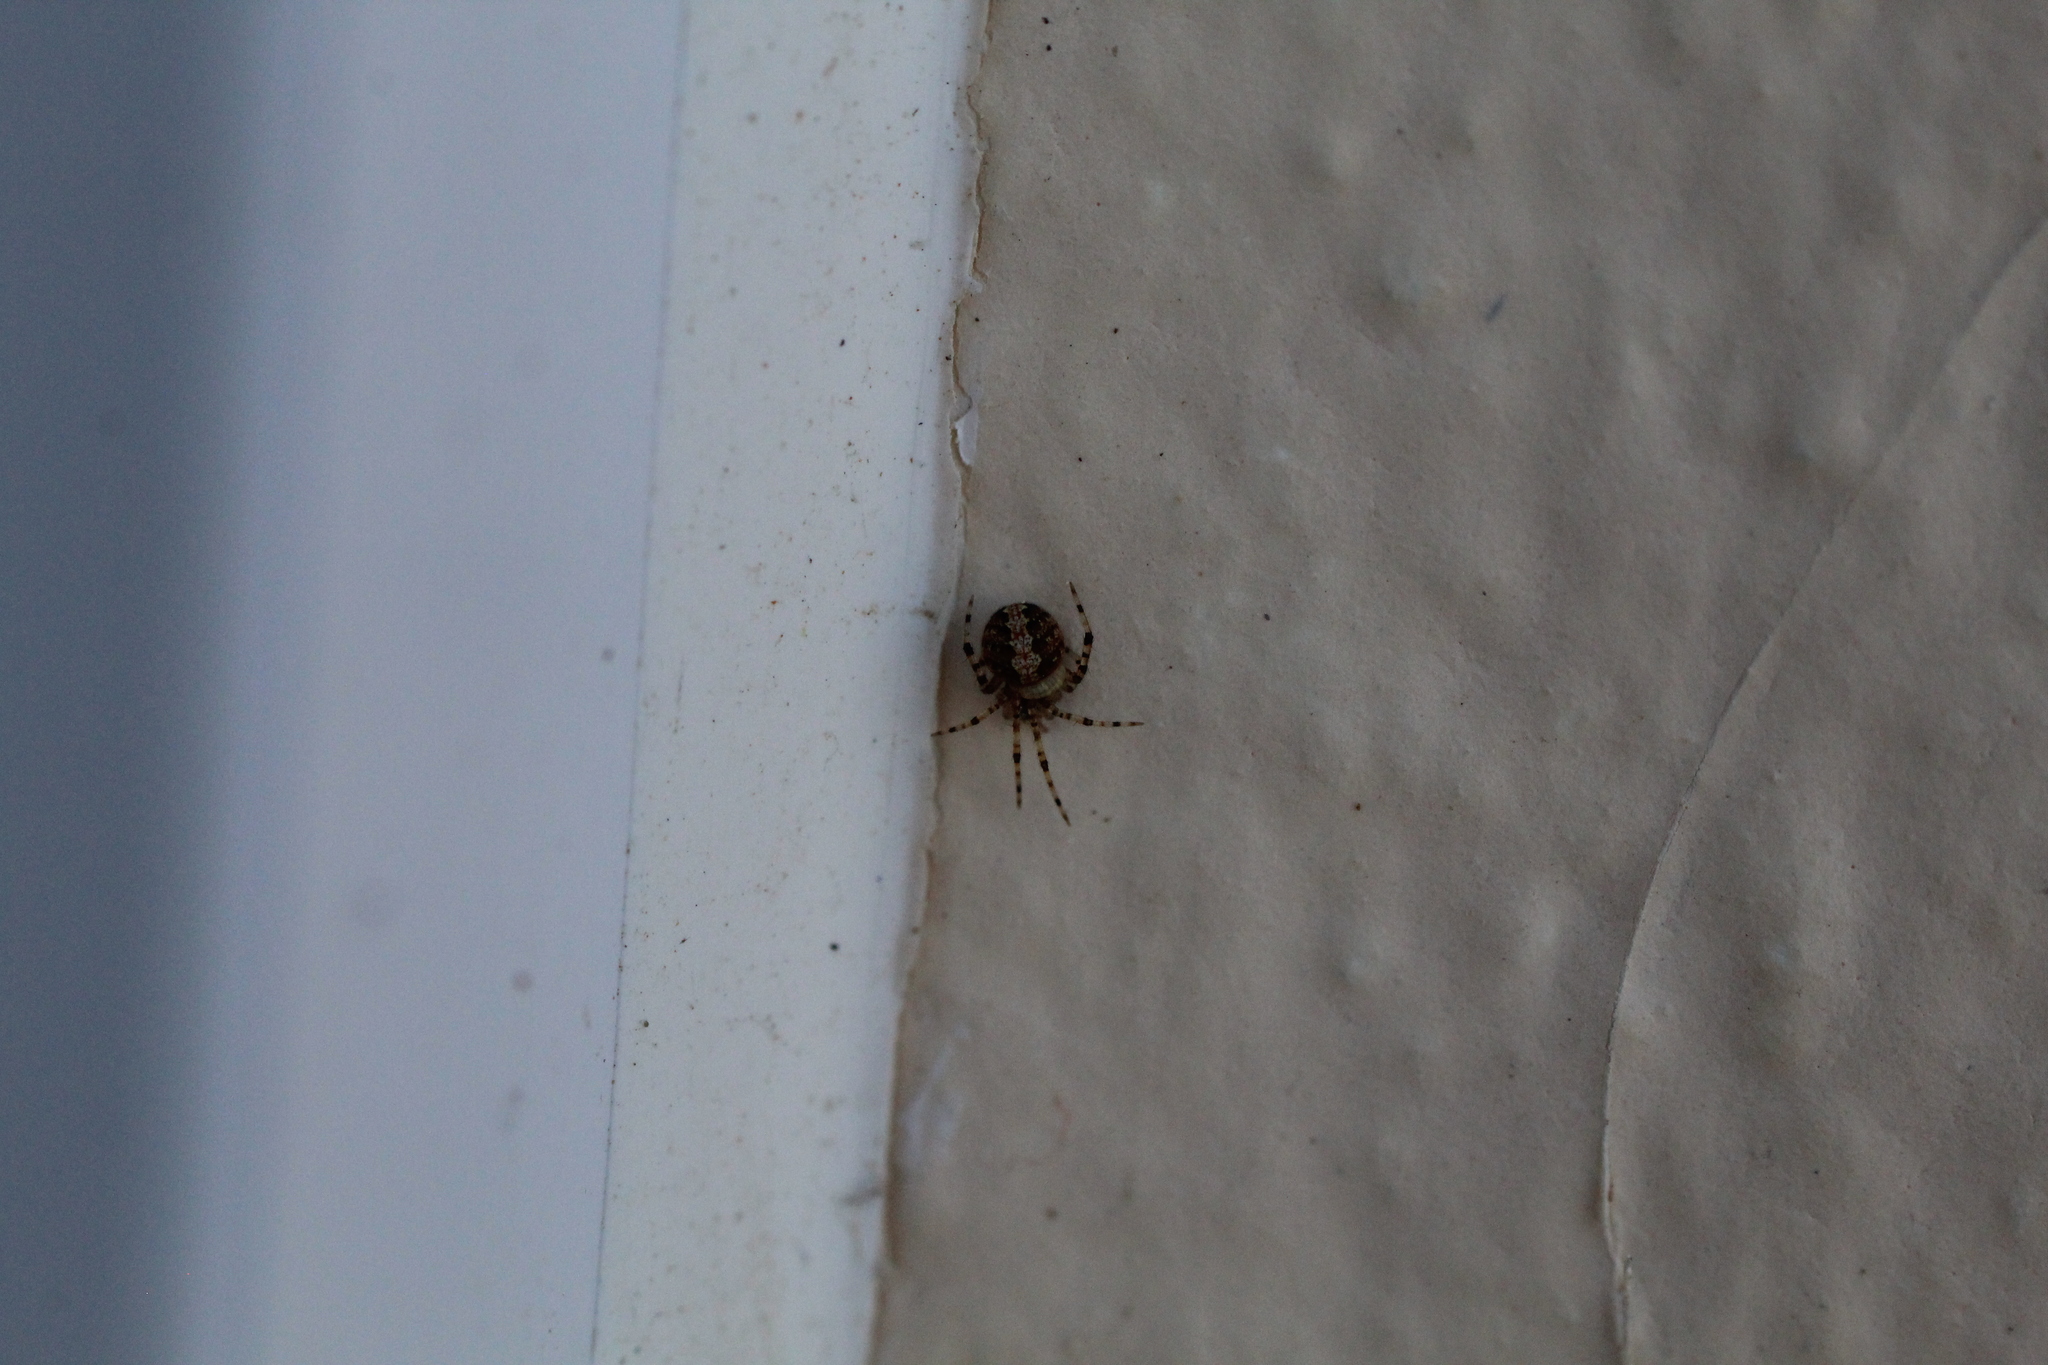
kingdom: Animalia
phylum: Arthropoda
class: Arachnida
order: Araneae
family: Theridiidae
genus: Theridion
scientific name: Theridion
